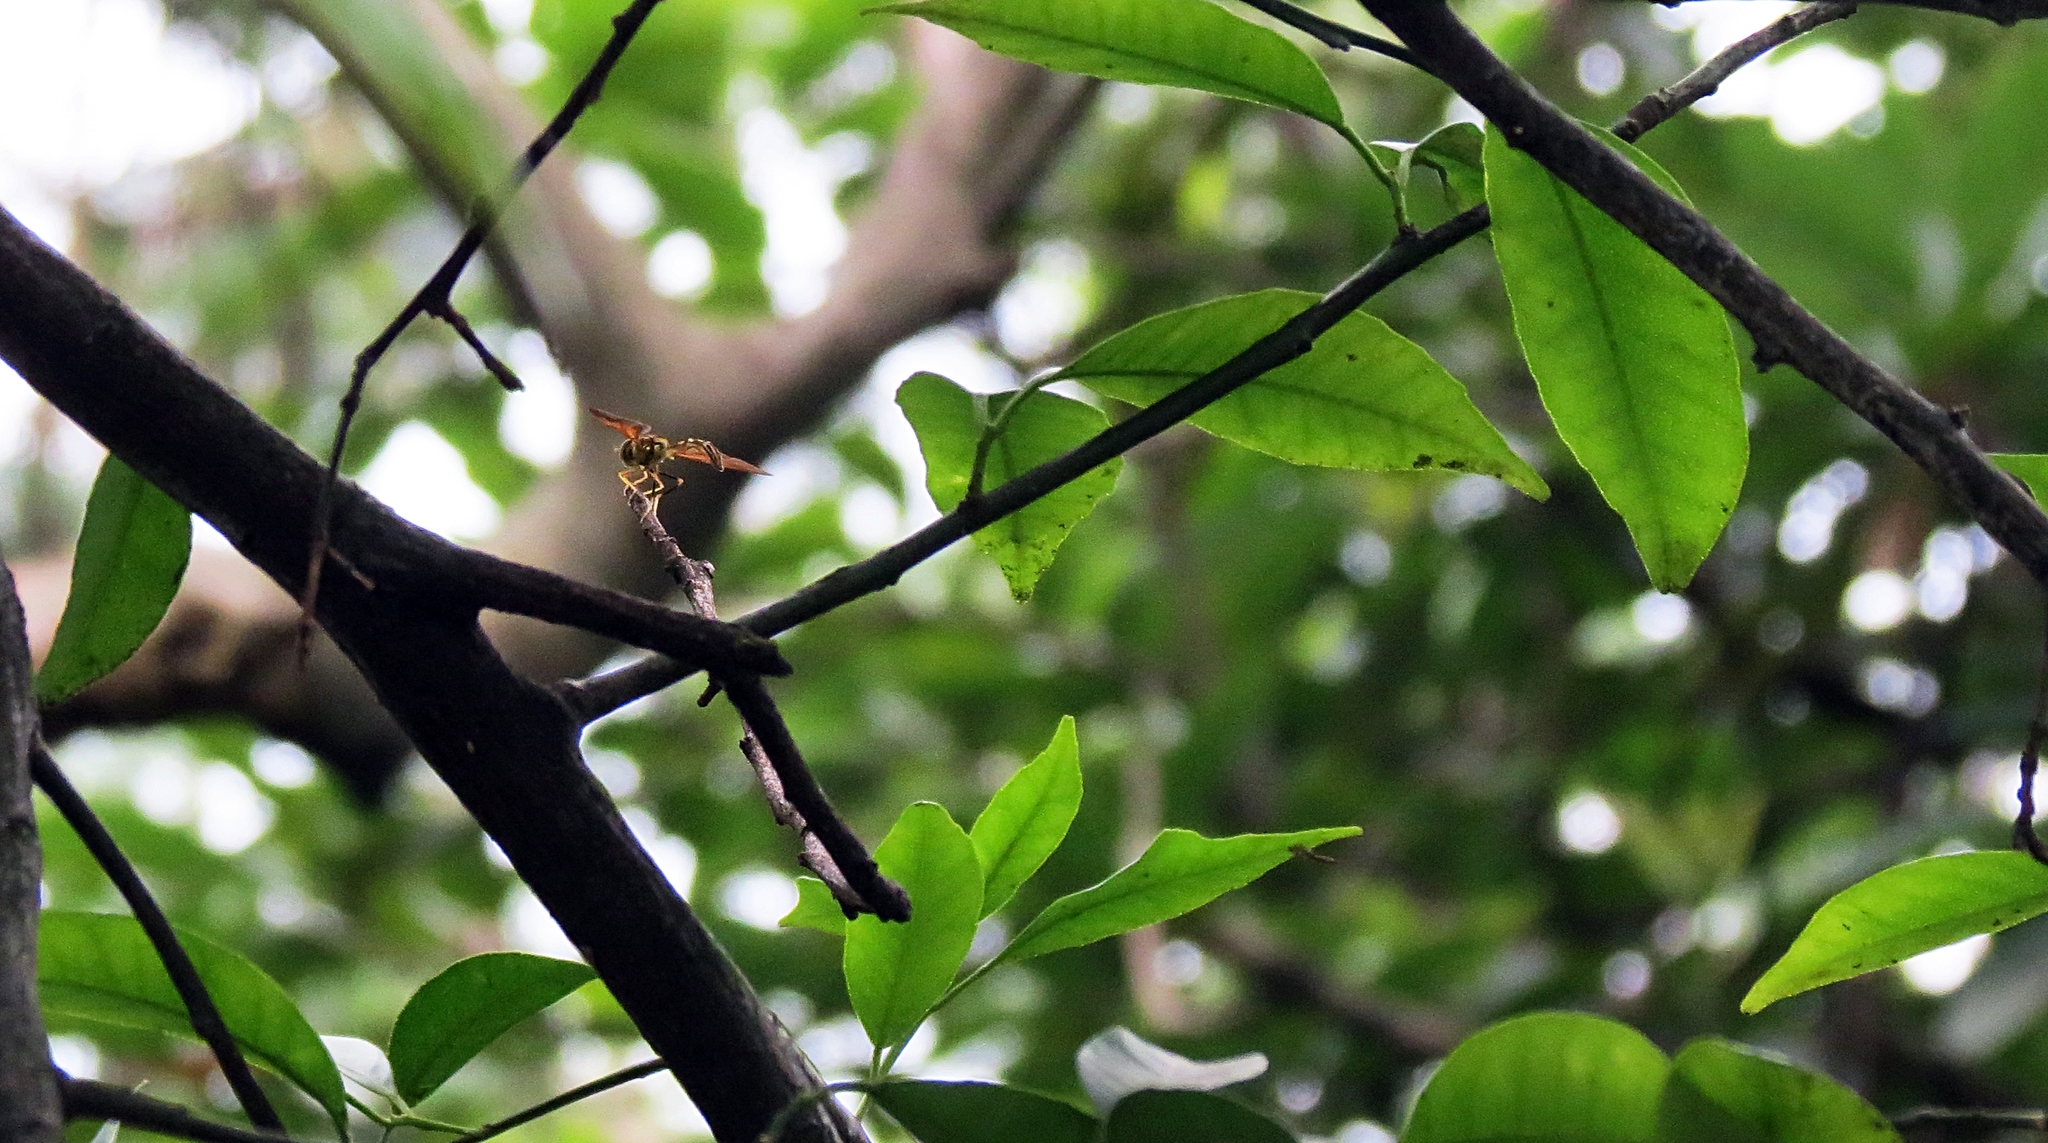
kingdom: Animalia
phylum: Arthropoda
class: Insecta
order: Diptera
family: Syrphidae
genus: Pelecinobaccha
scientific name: Pelecinobaccha cubensis
